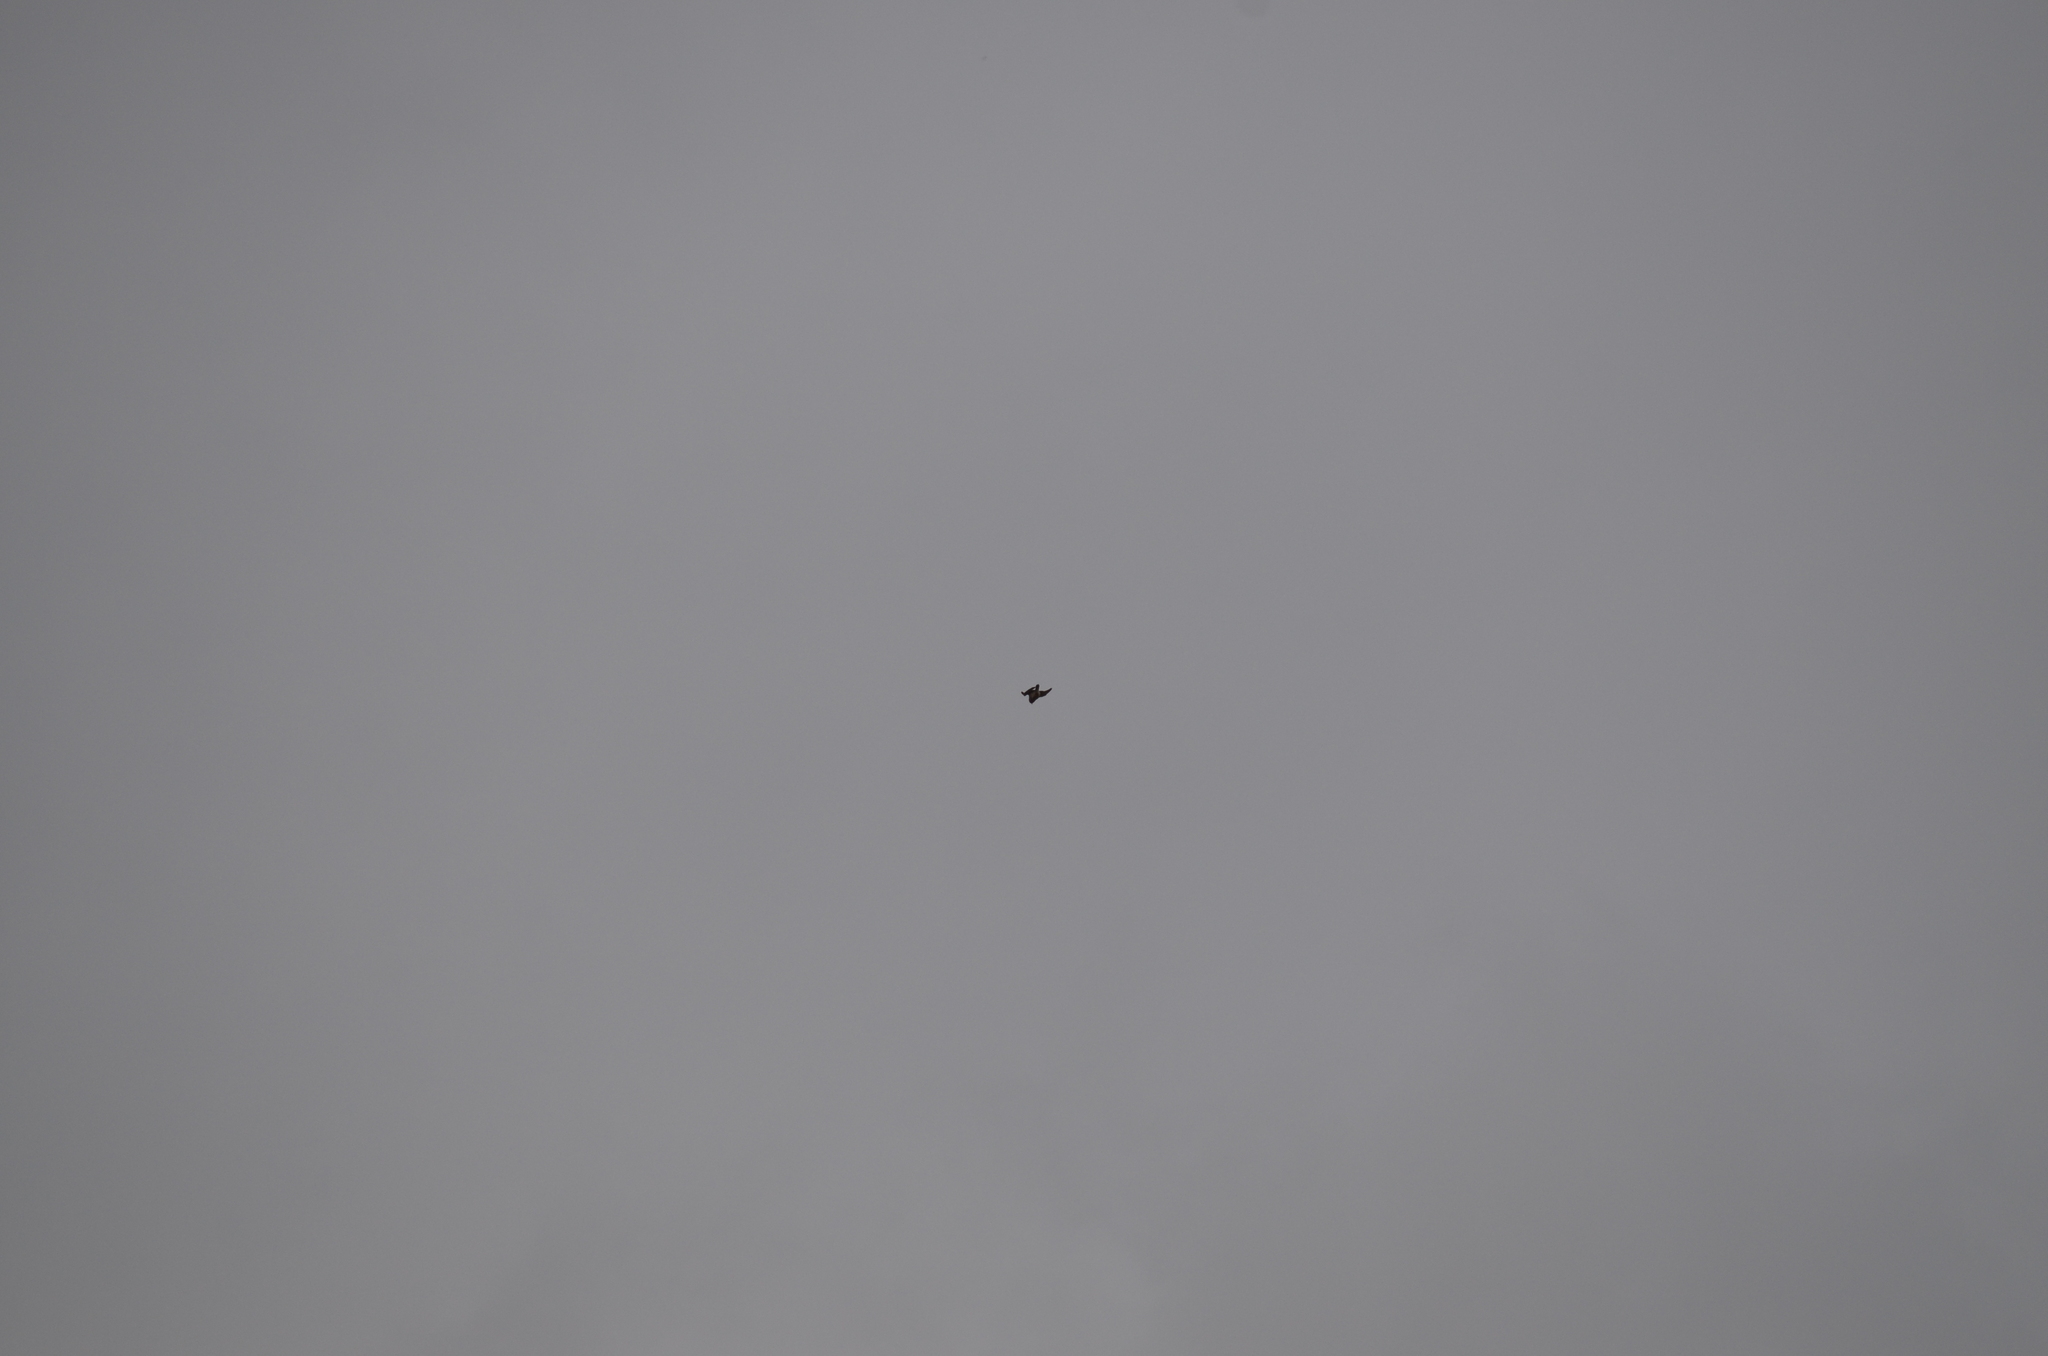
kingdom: Animalia
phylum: Chordata
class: Aves
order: Falconiformes
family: Falconidae
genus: Falco
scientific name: Falco tinnunculus
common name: Common kestrel
